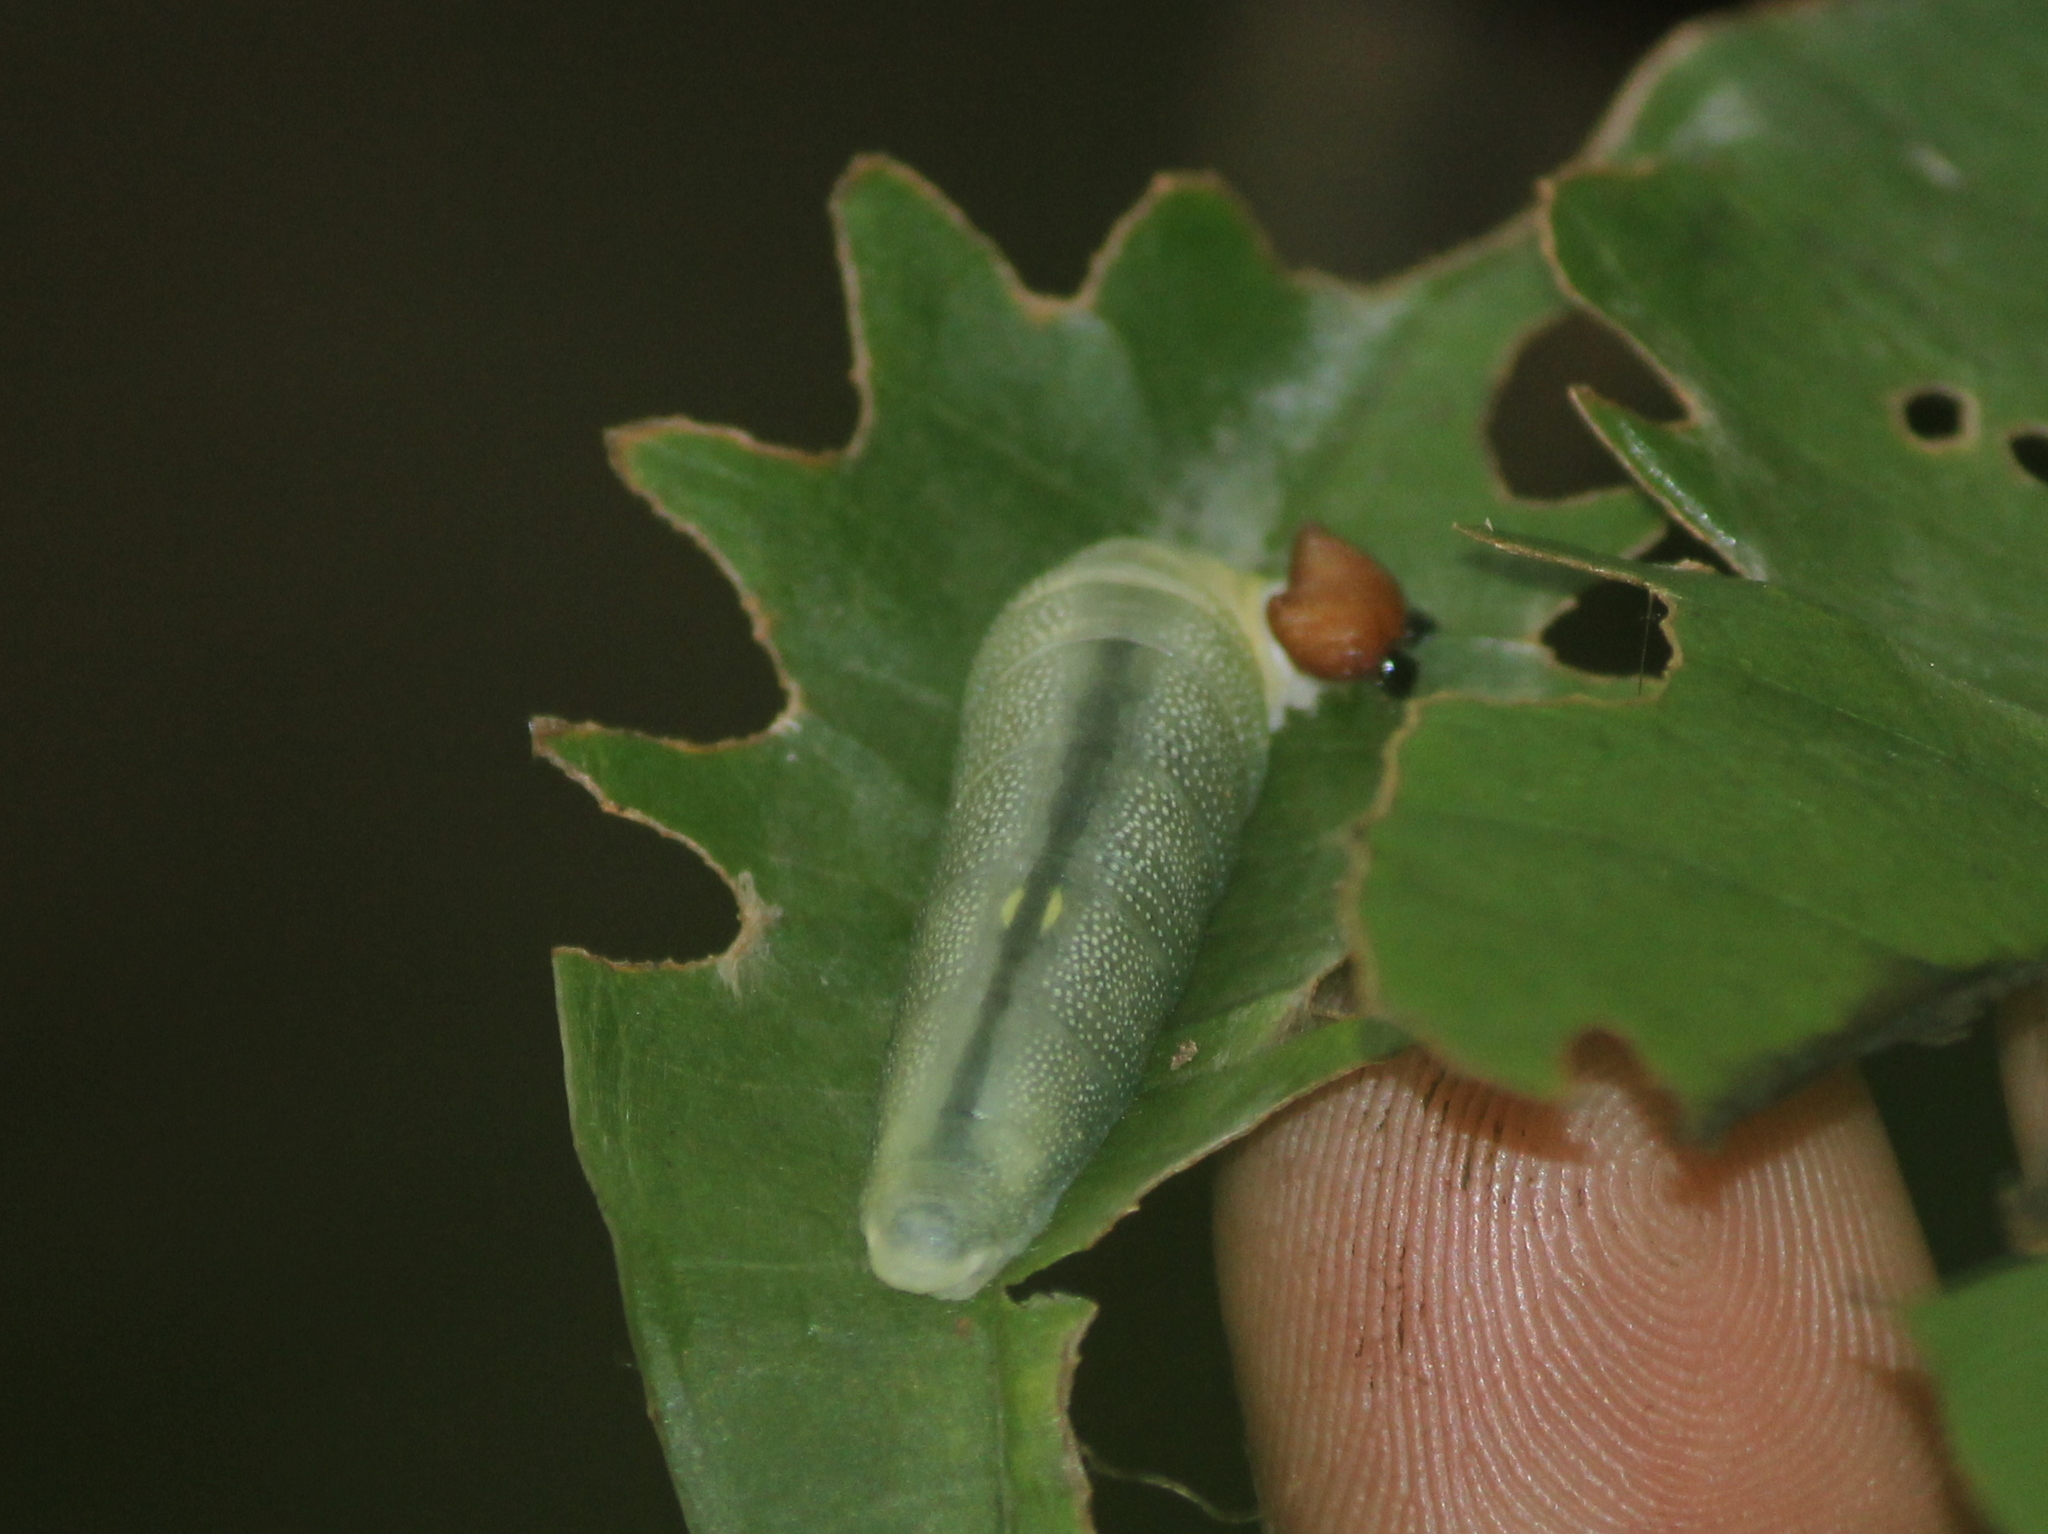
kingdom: Animalia
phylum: Arthropoda
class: Insecta
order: Lepidoptera
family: Hesperiidae
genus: Tagiades
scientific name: Tagiades litigiosa
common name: Water snow flat
